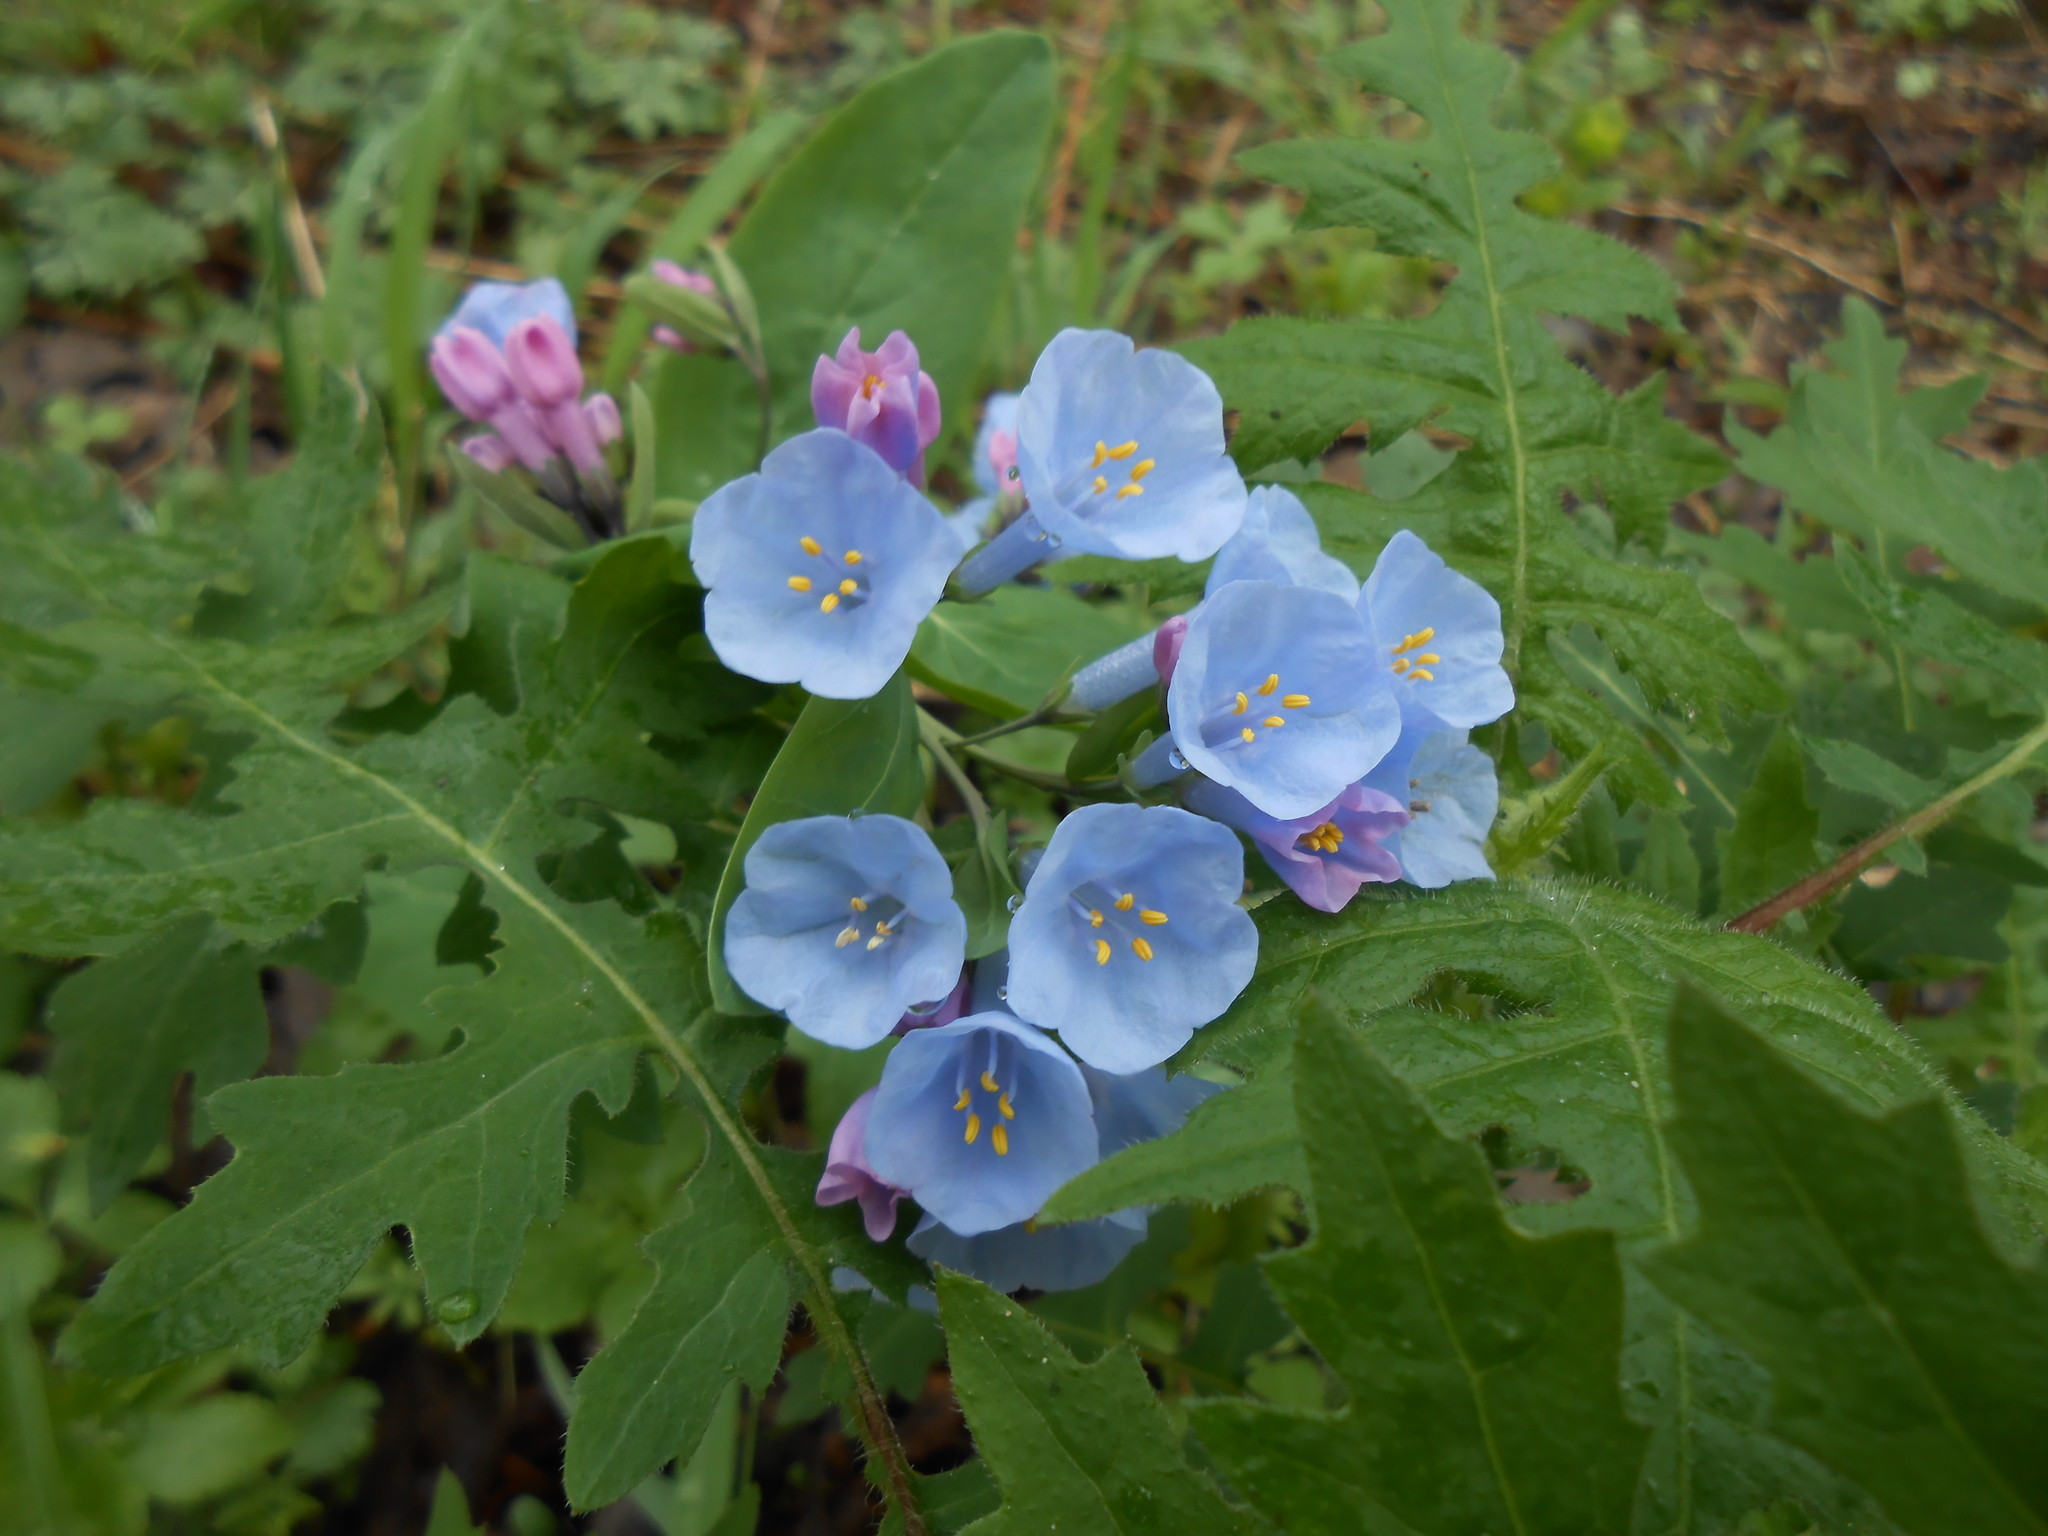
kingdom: Plantae
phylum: Tracheophyta
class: Magnoliopsida
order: Boraginales
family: Boraginaceae
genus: Mertensia
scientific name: Mertensia virginica
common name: Virginia bluebells
